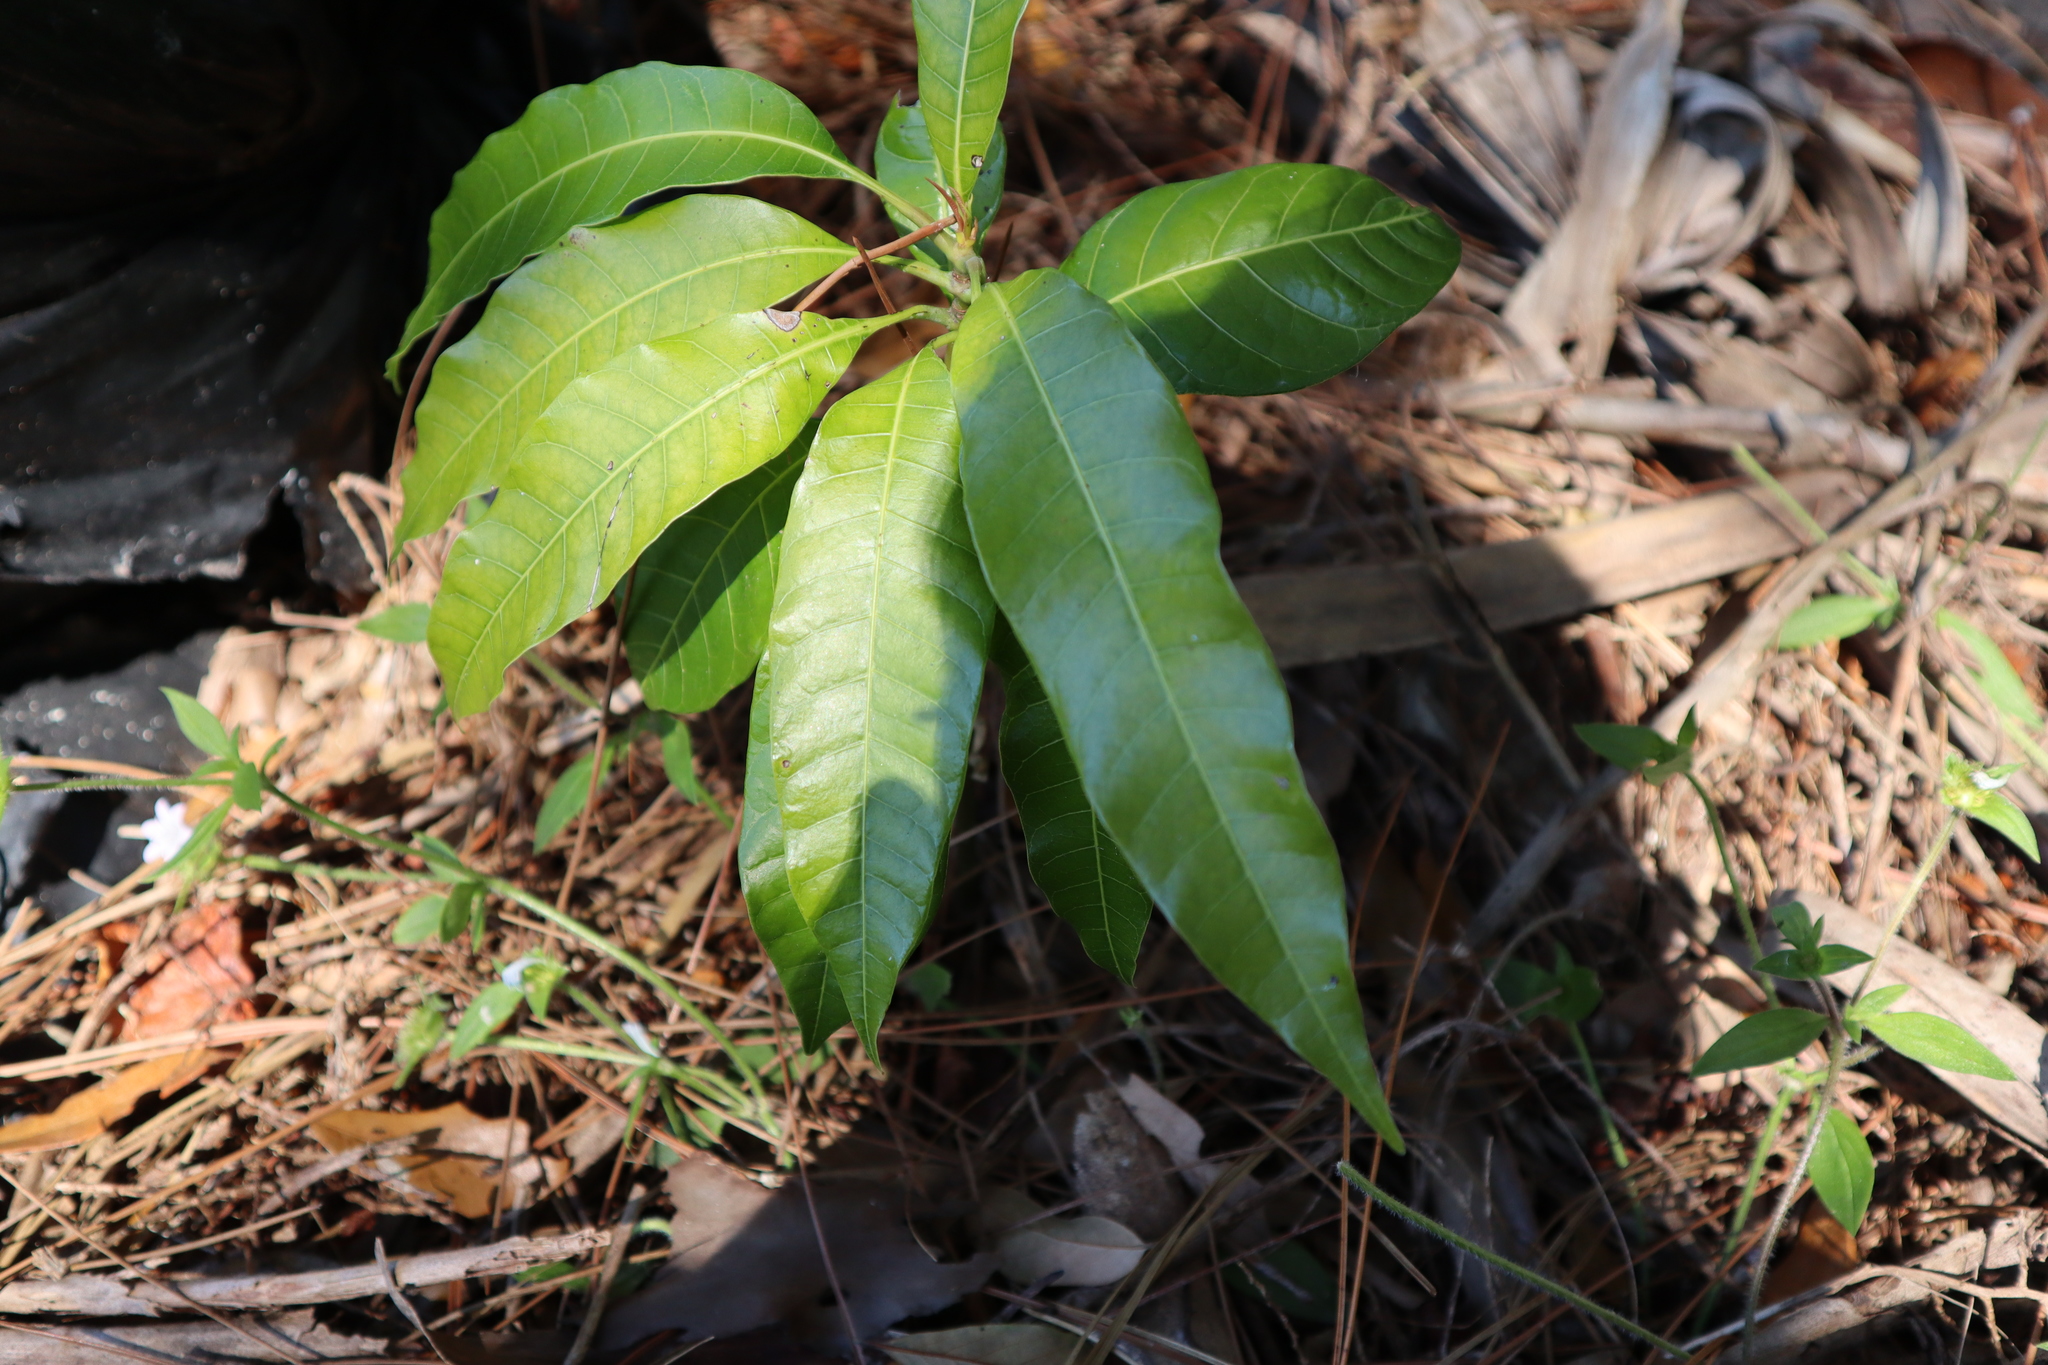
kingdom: Plantae
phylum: Tracheophyta
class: Magnoliopsida
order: Sapindales
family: Anacardiaceae
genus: Mangifera
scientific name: Mangifera indica
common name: Mango
